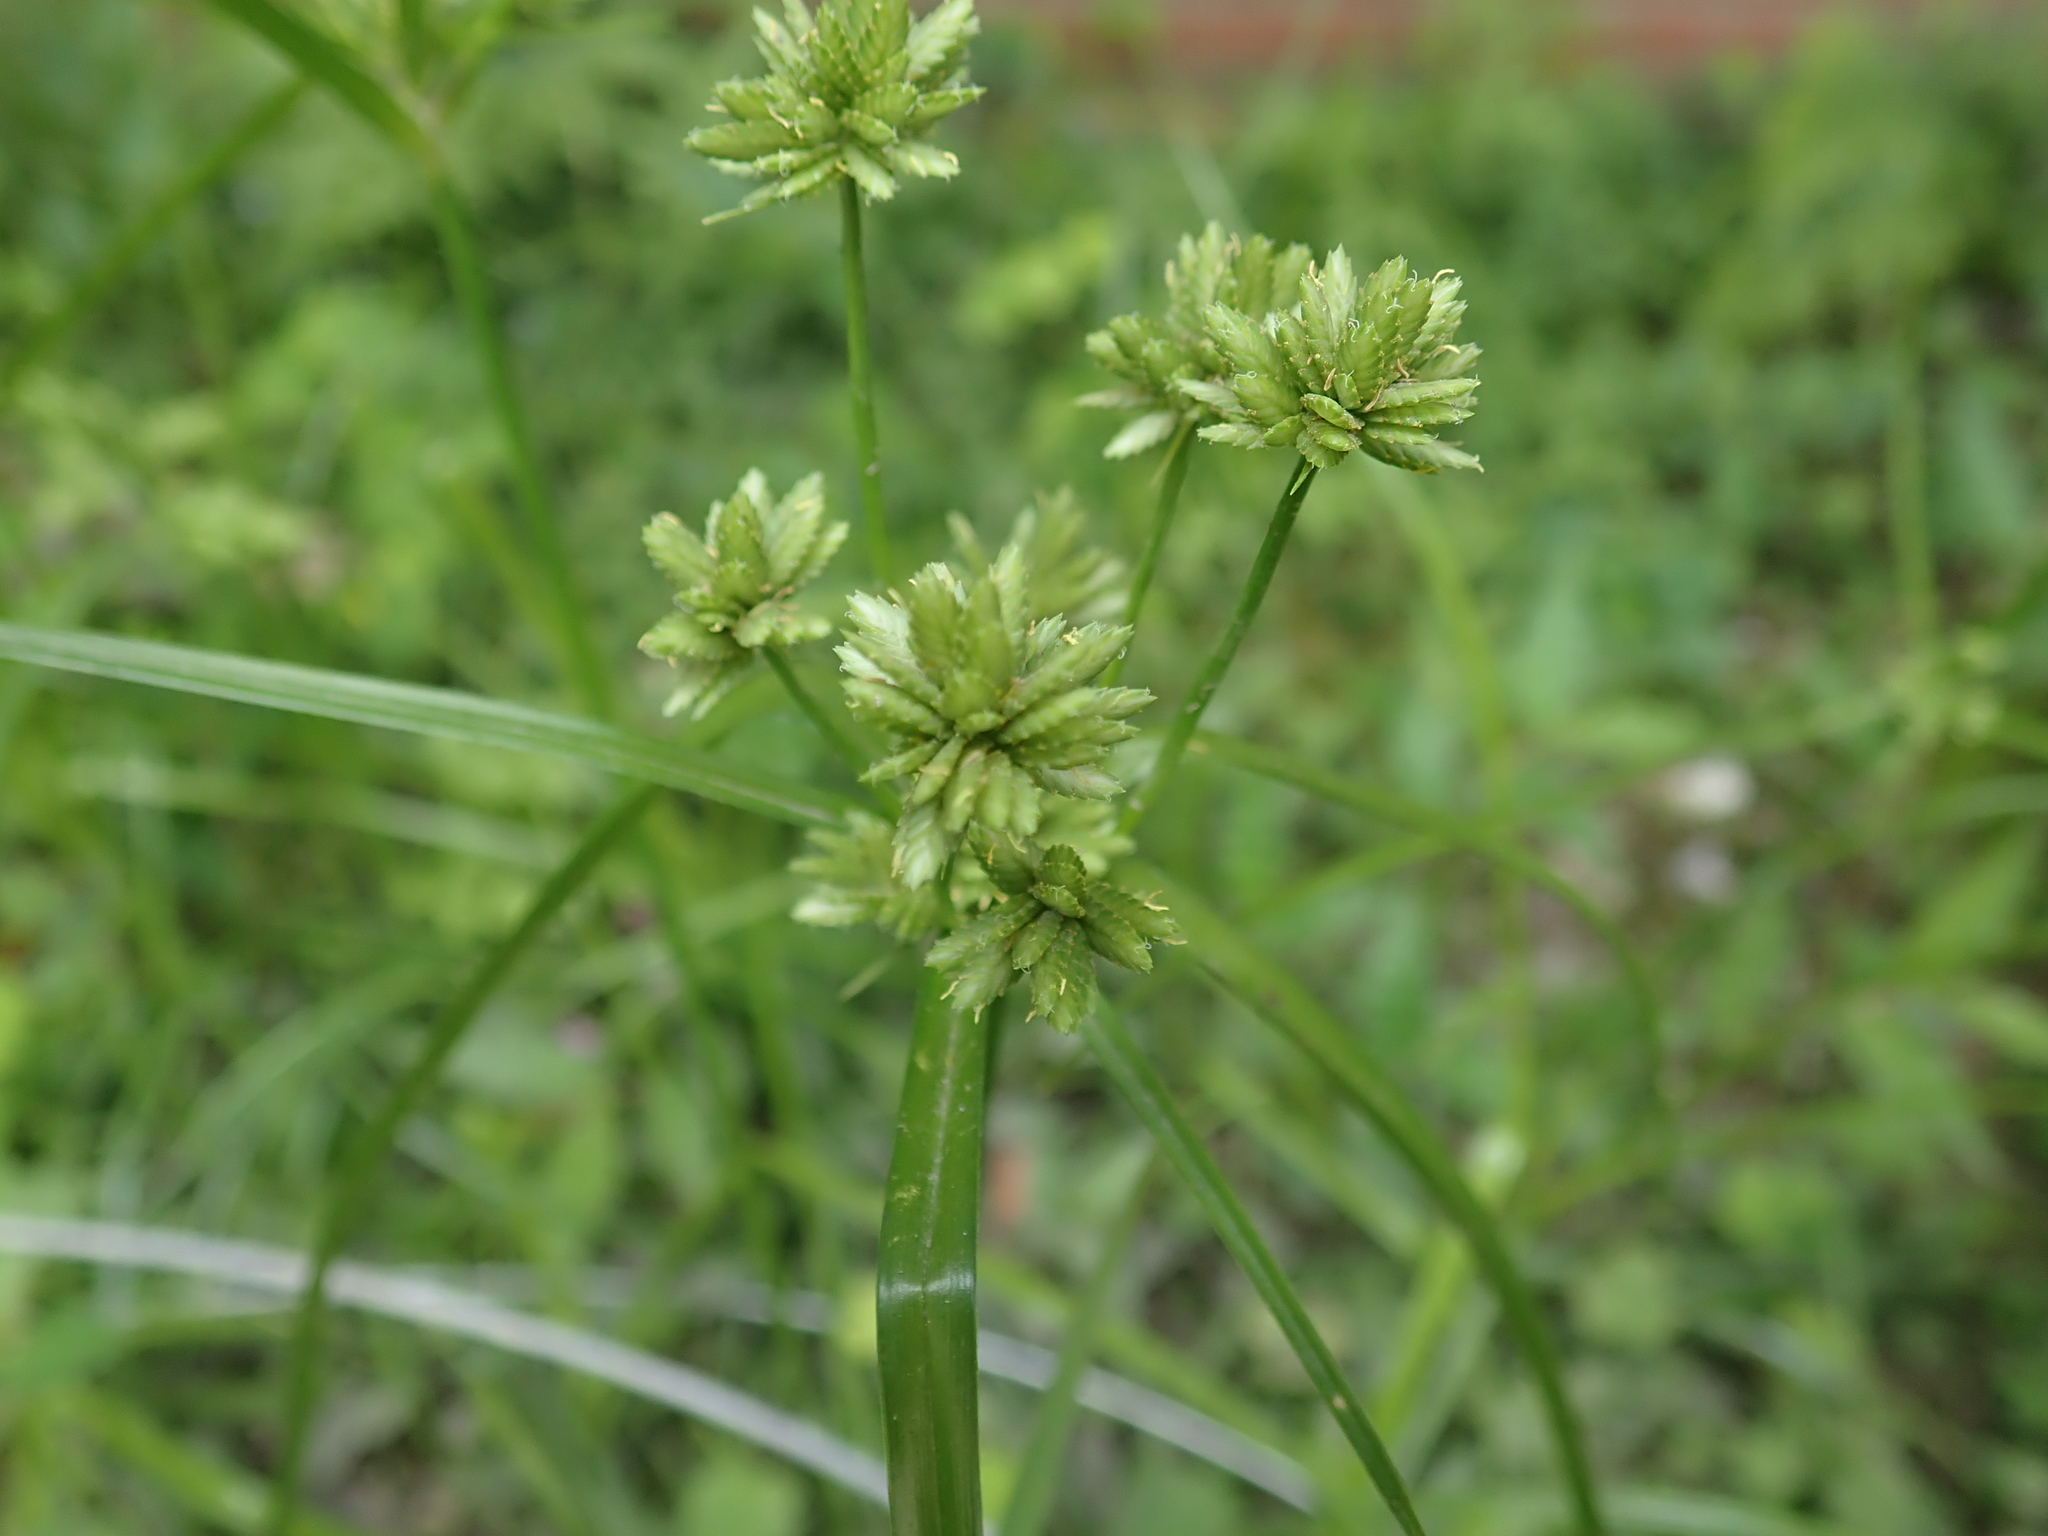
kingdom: Plantae
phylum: Tracheophyta
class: Liliopsida
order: Poales
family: Cyperaceae
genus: Cyperus
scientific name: Cyperus eragrostis
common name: Tall flatsedge
